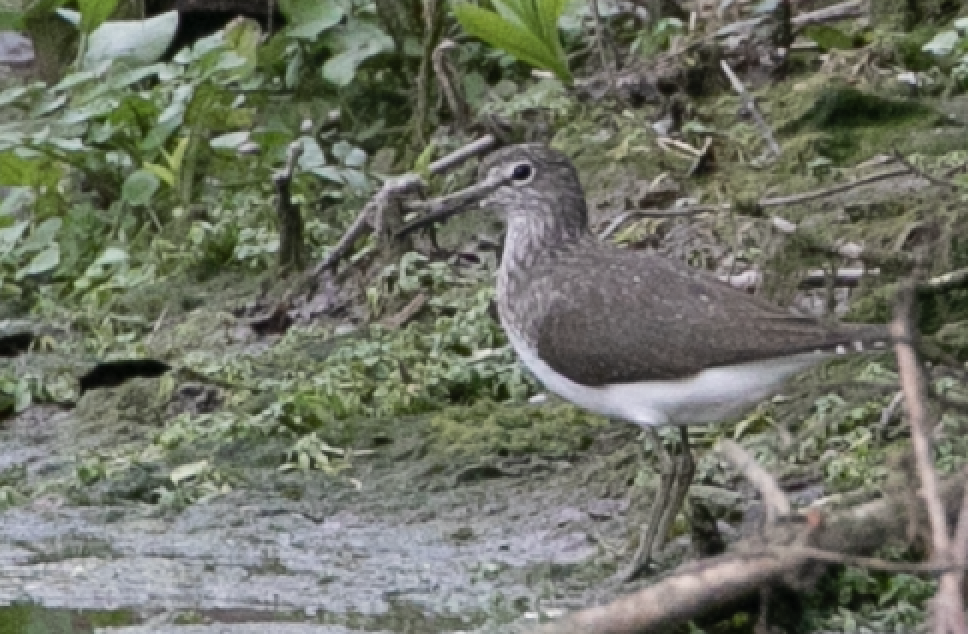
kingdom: Animalia
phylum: Chordata
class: Aves
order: Charadriiformes
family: Scolopacidae
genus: Tringa
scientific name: Tringa ochropus
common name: Green sandpiper
